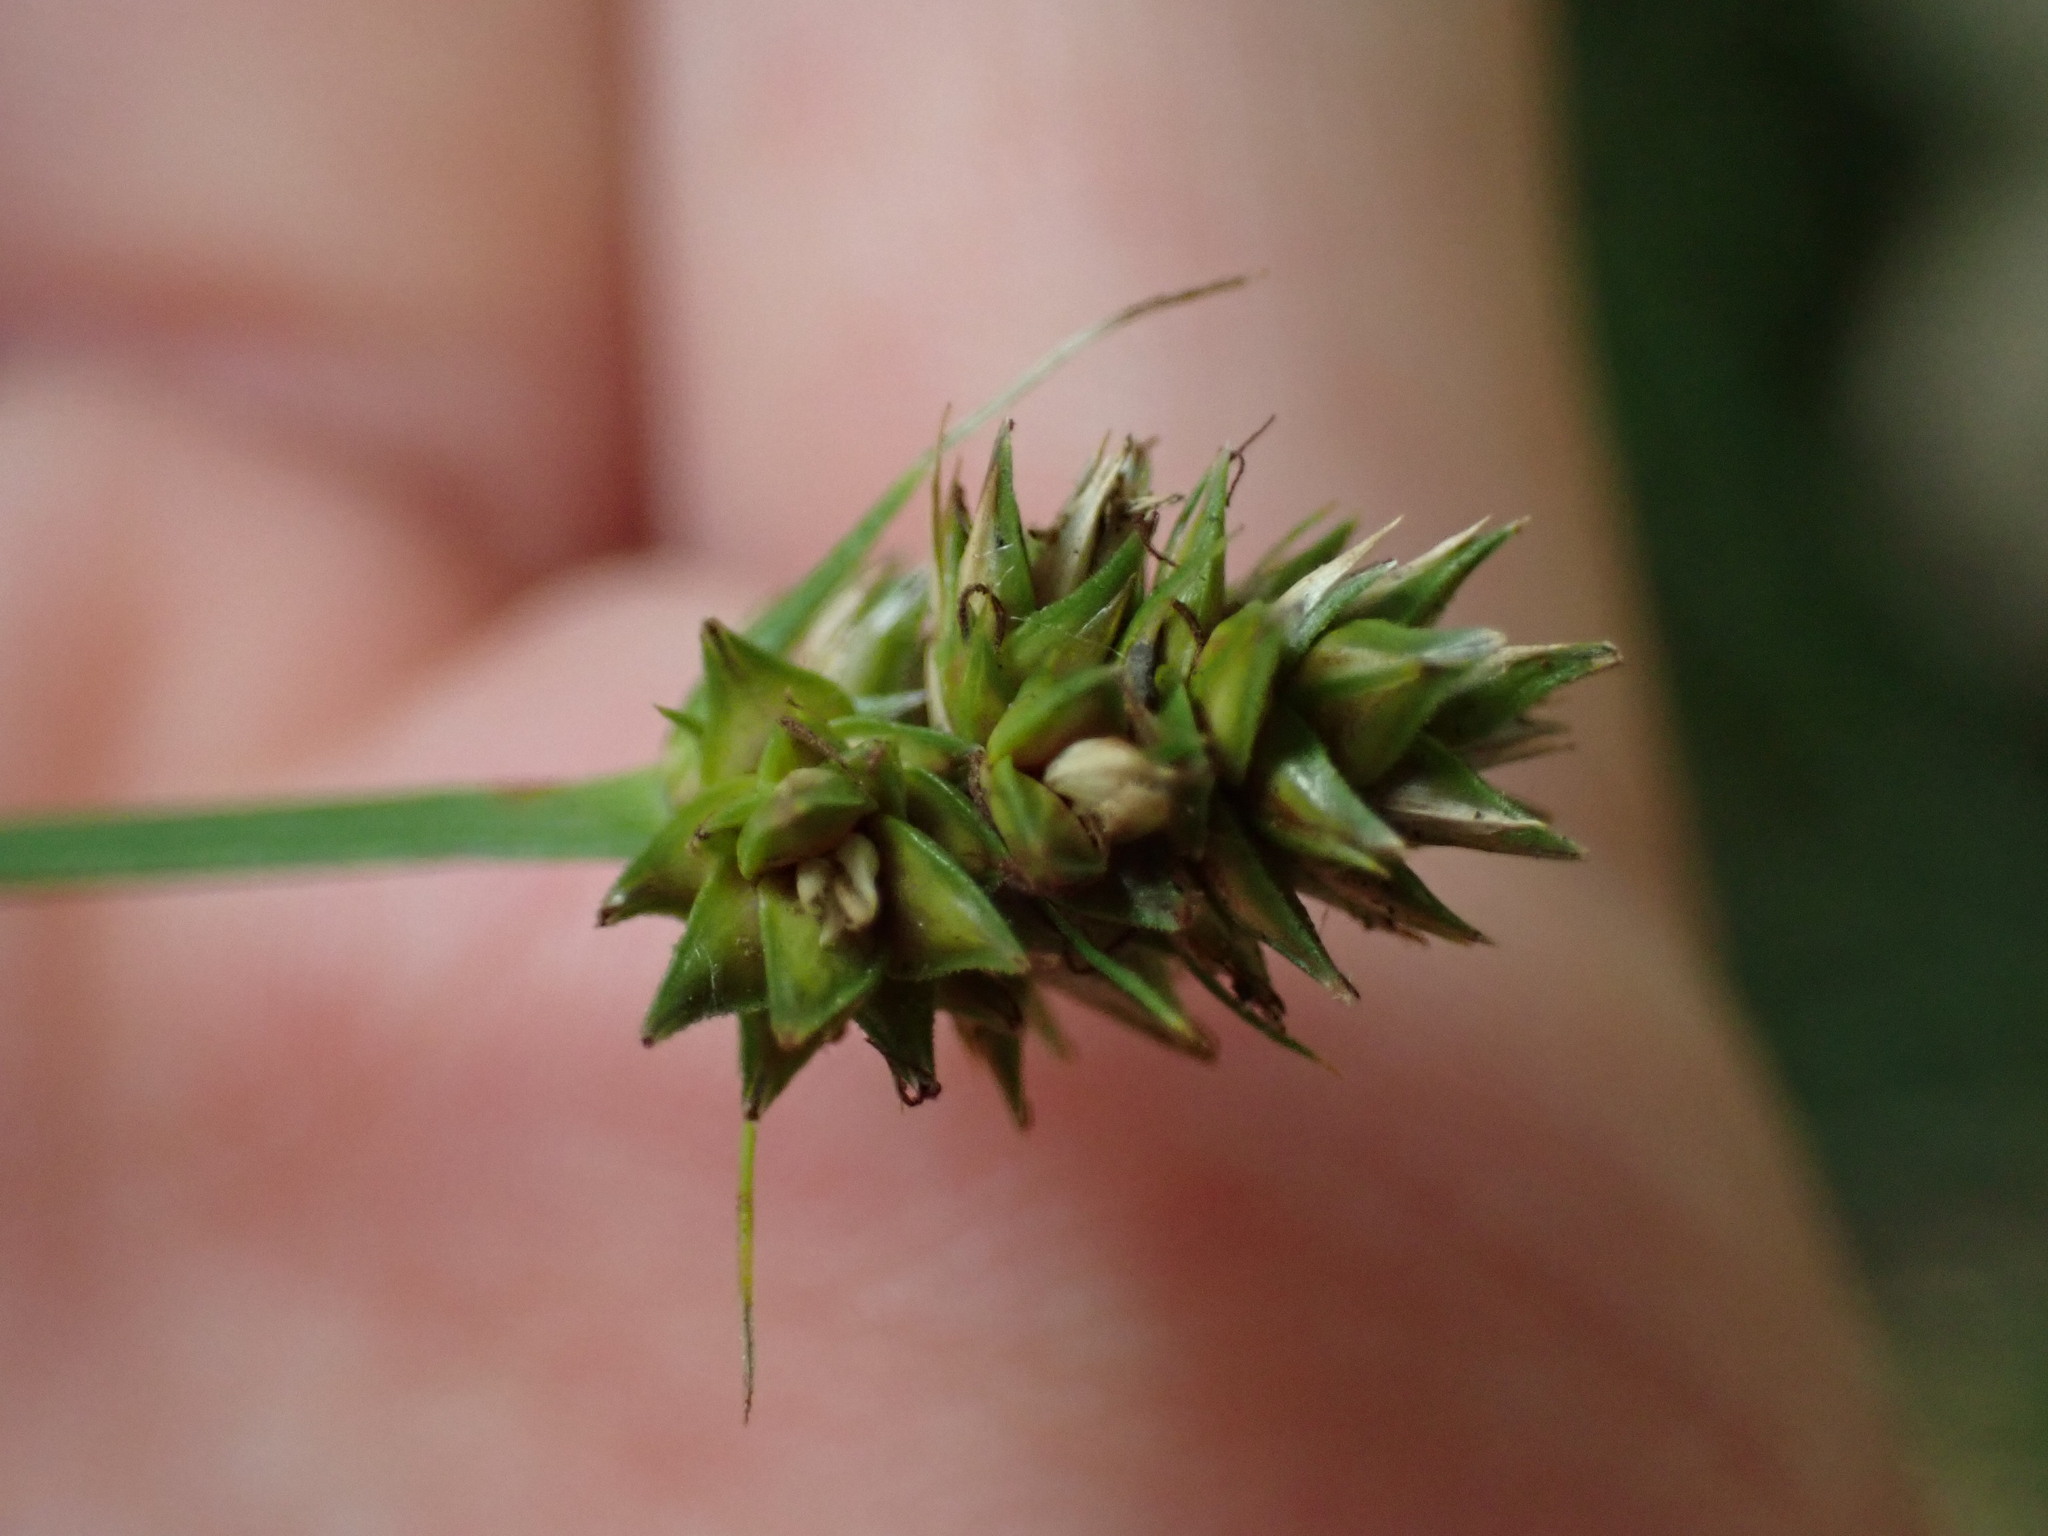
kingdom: Plantae
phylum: Tracheophyta
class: Liliopsida
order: Poales
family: Cyperaceae
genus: Carex
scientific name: Carex muehlenbergii
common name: Muhlenberg's bracted sedge
